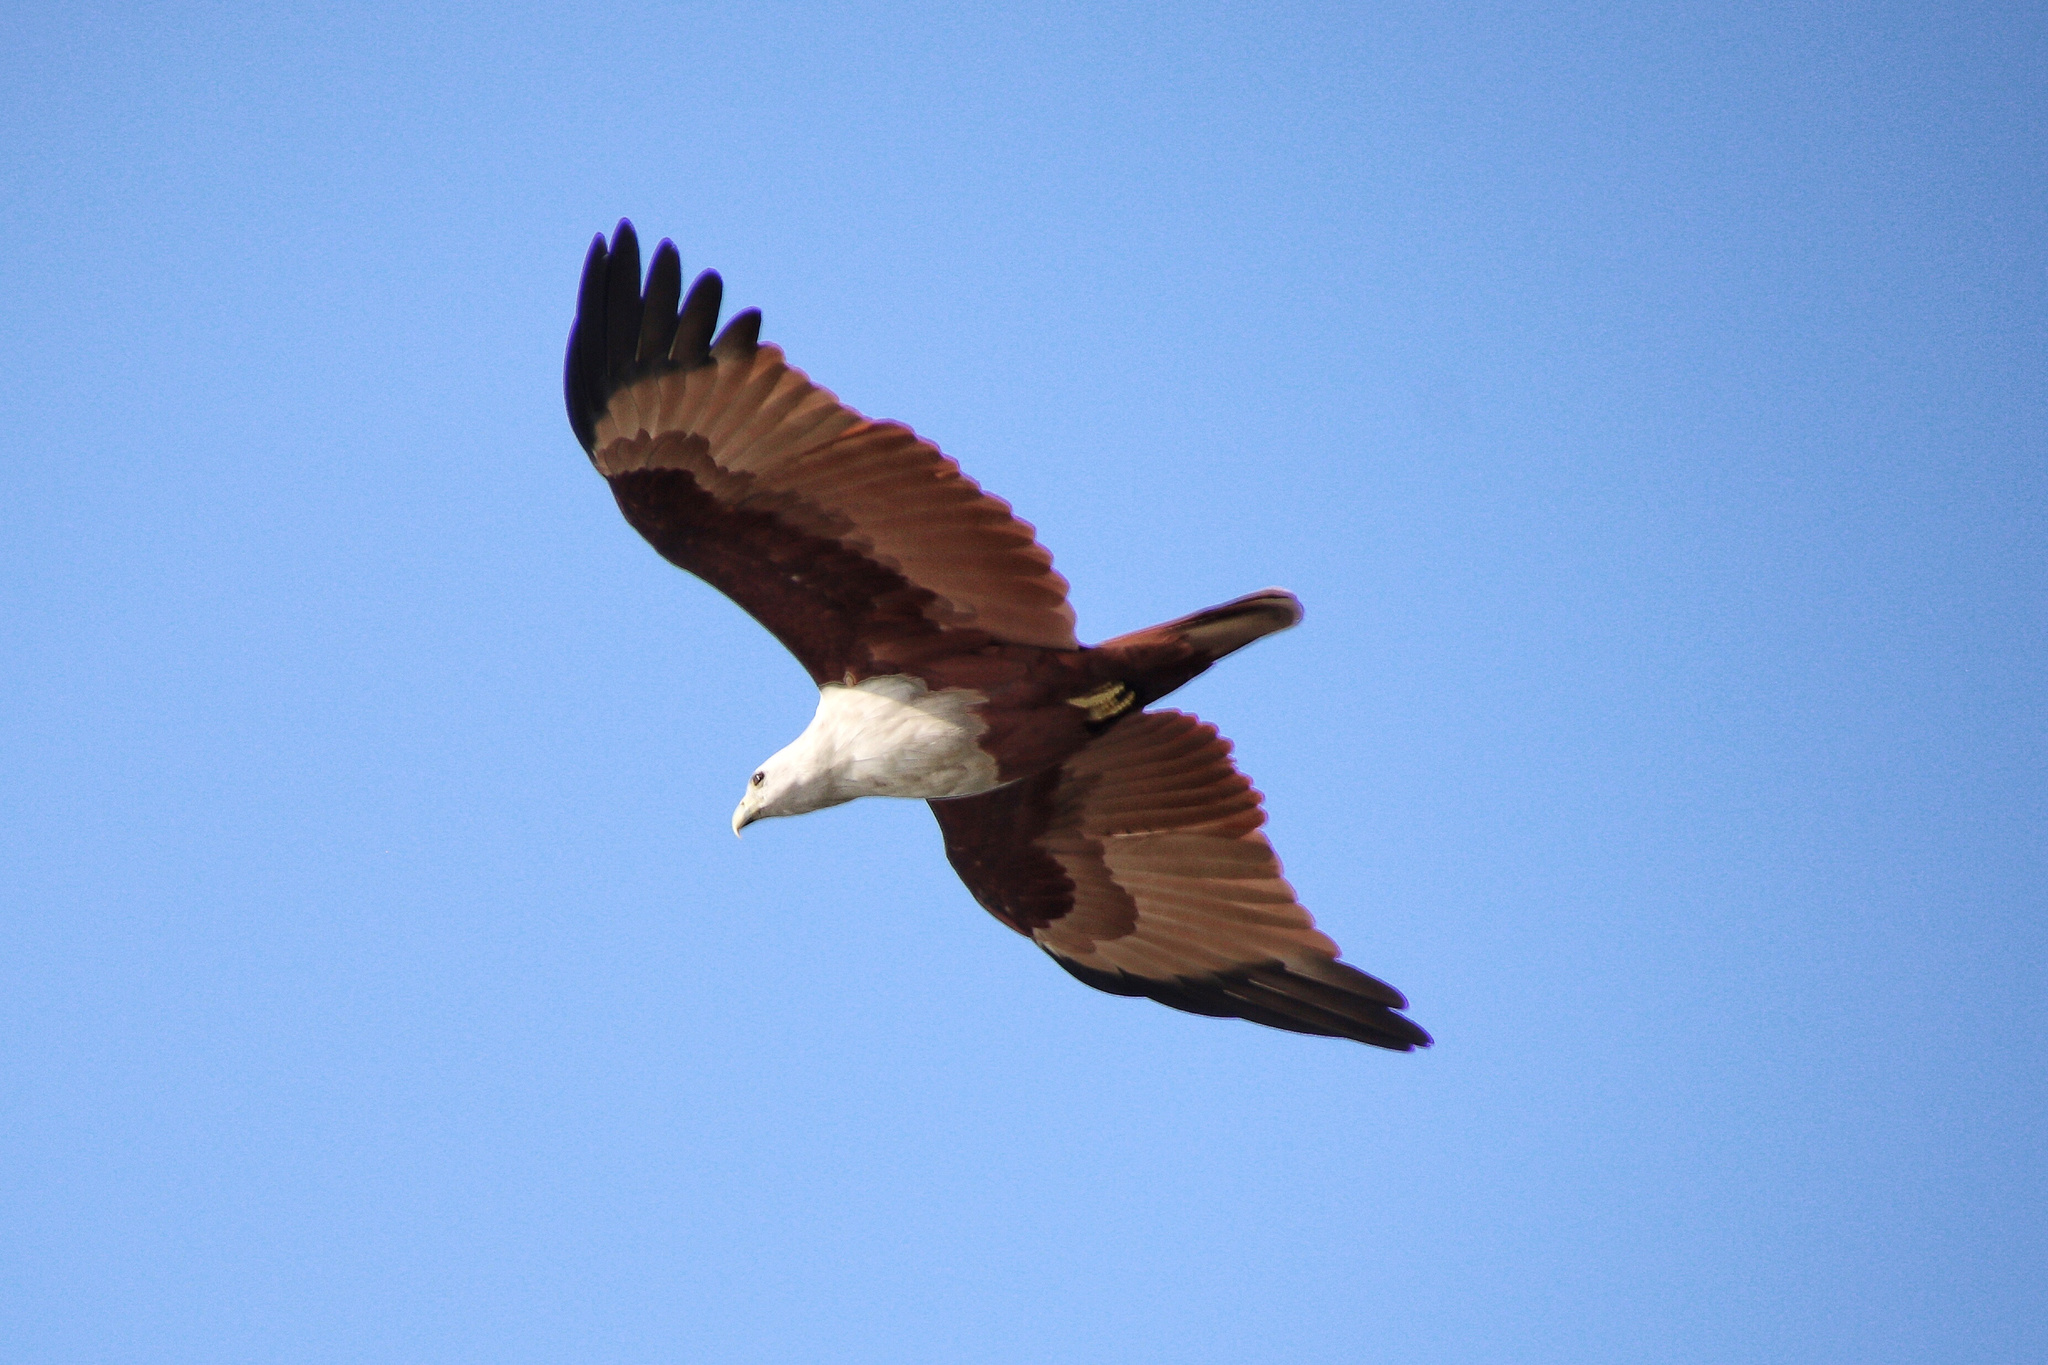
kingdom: Animalia
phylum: Chordata
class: Aves
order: Accipitriformes
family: Accipitridae
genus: Haliastur
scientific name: Haliastur indus
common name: Brahminy kite
